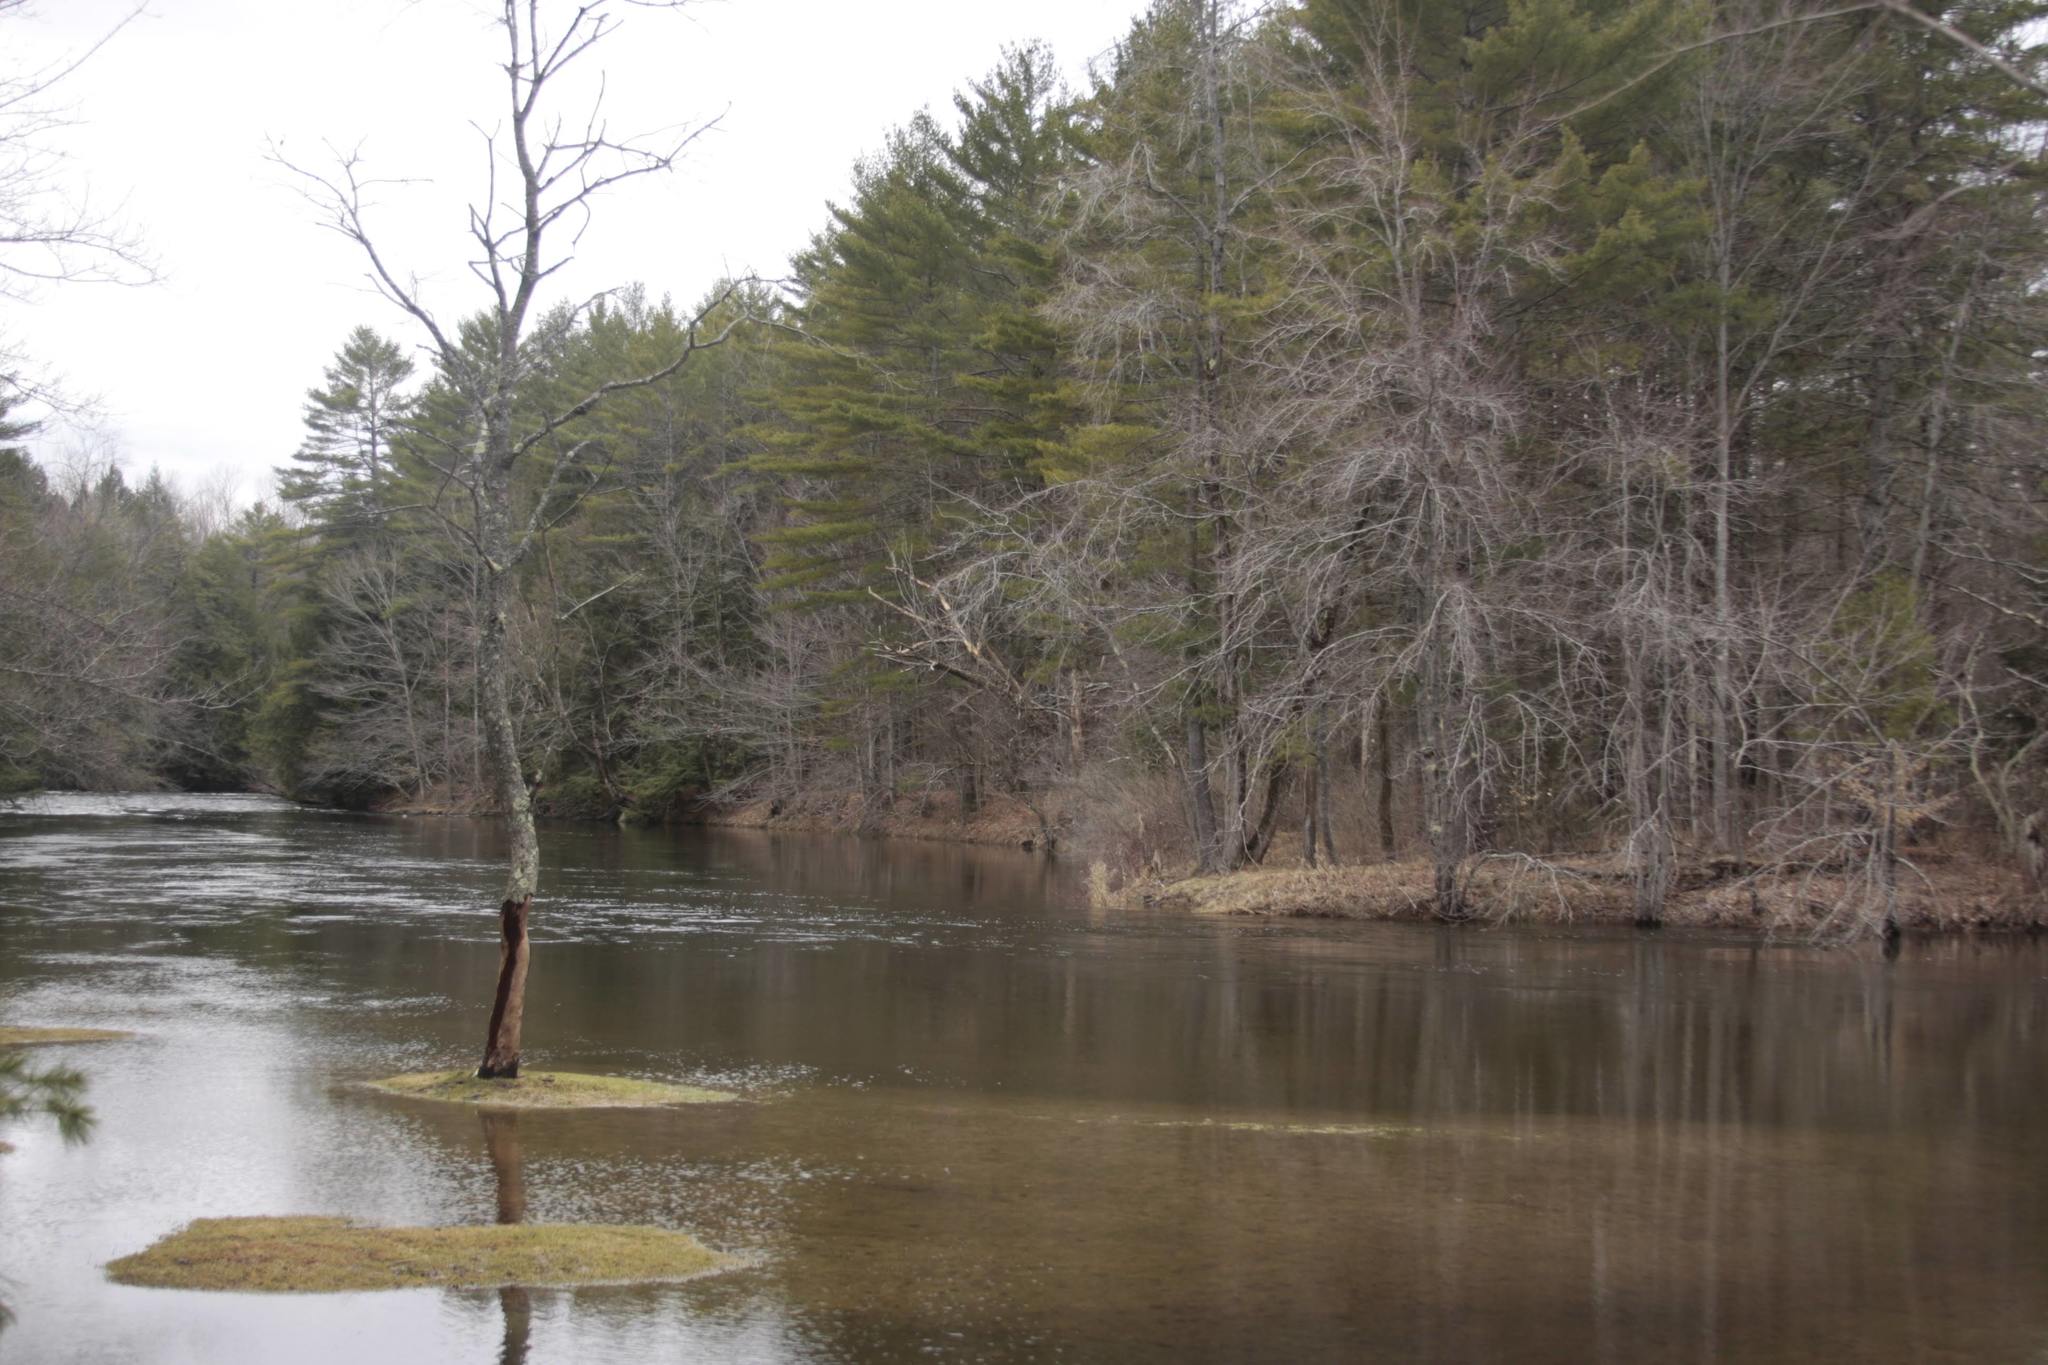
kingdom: Plantae
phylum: Tracheophyta
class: Pinopsida
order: Pinales
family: Pinaceae
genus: Pinus
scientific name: Pinus strobus
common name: Weymouth pine
